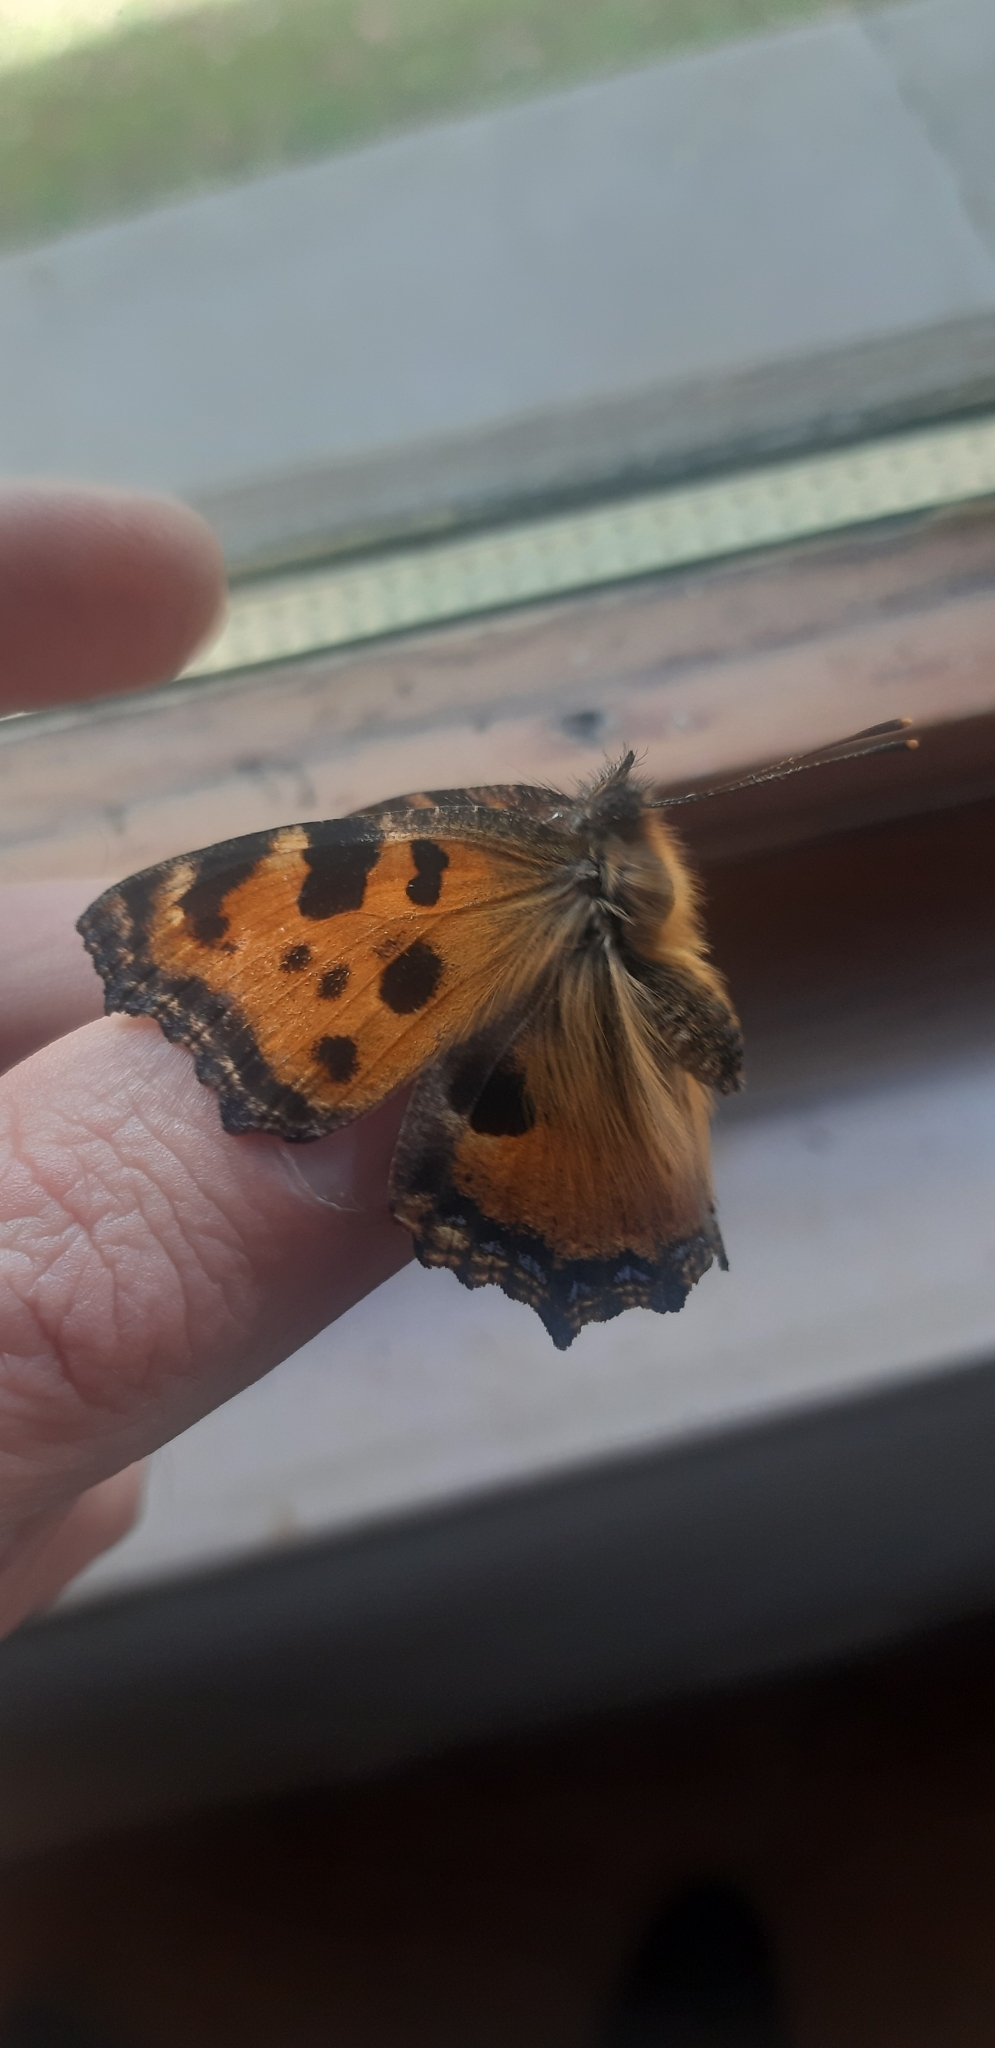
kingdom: Animalia
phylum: Arthropoda
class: Insecta
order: Lepidoptera
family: Nymphalidae
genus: Nymphalis
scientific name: Nymphalis polychloros
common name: Large tortoiseshell
